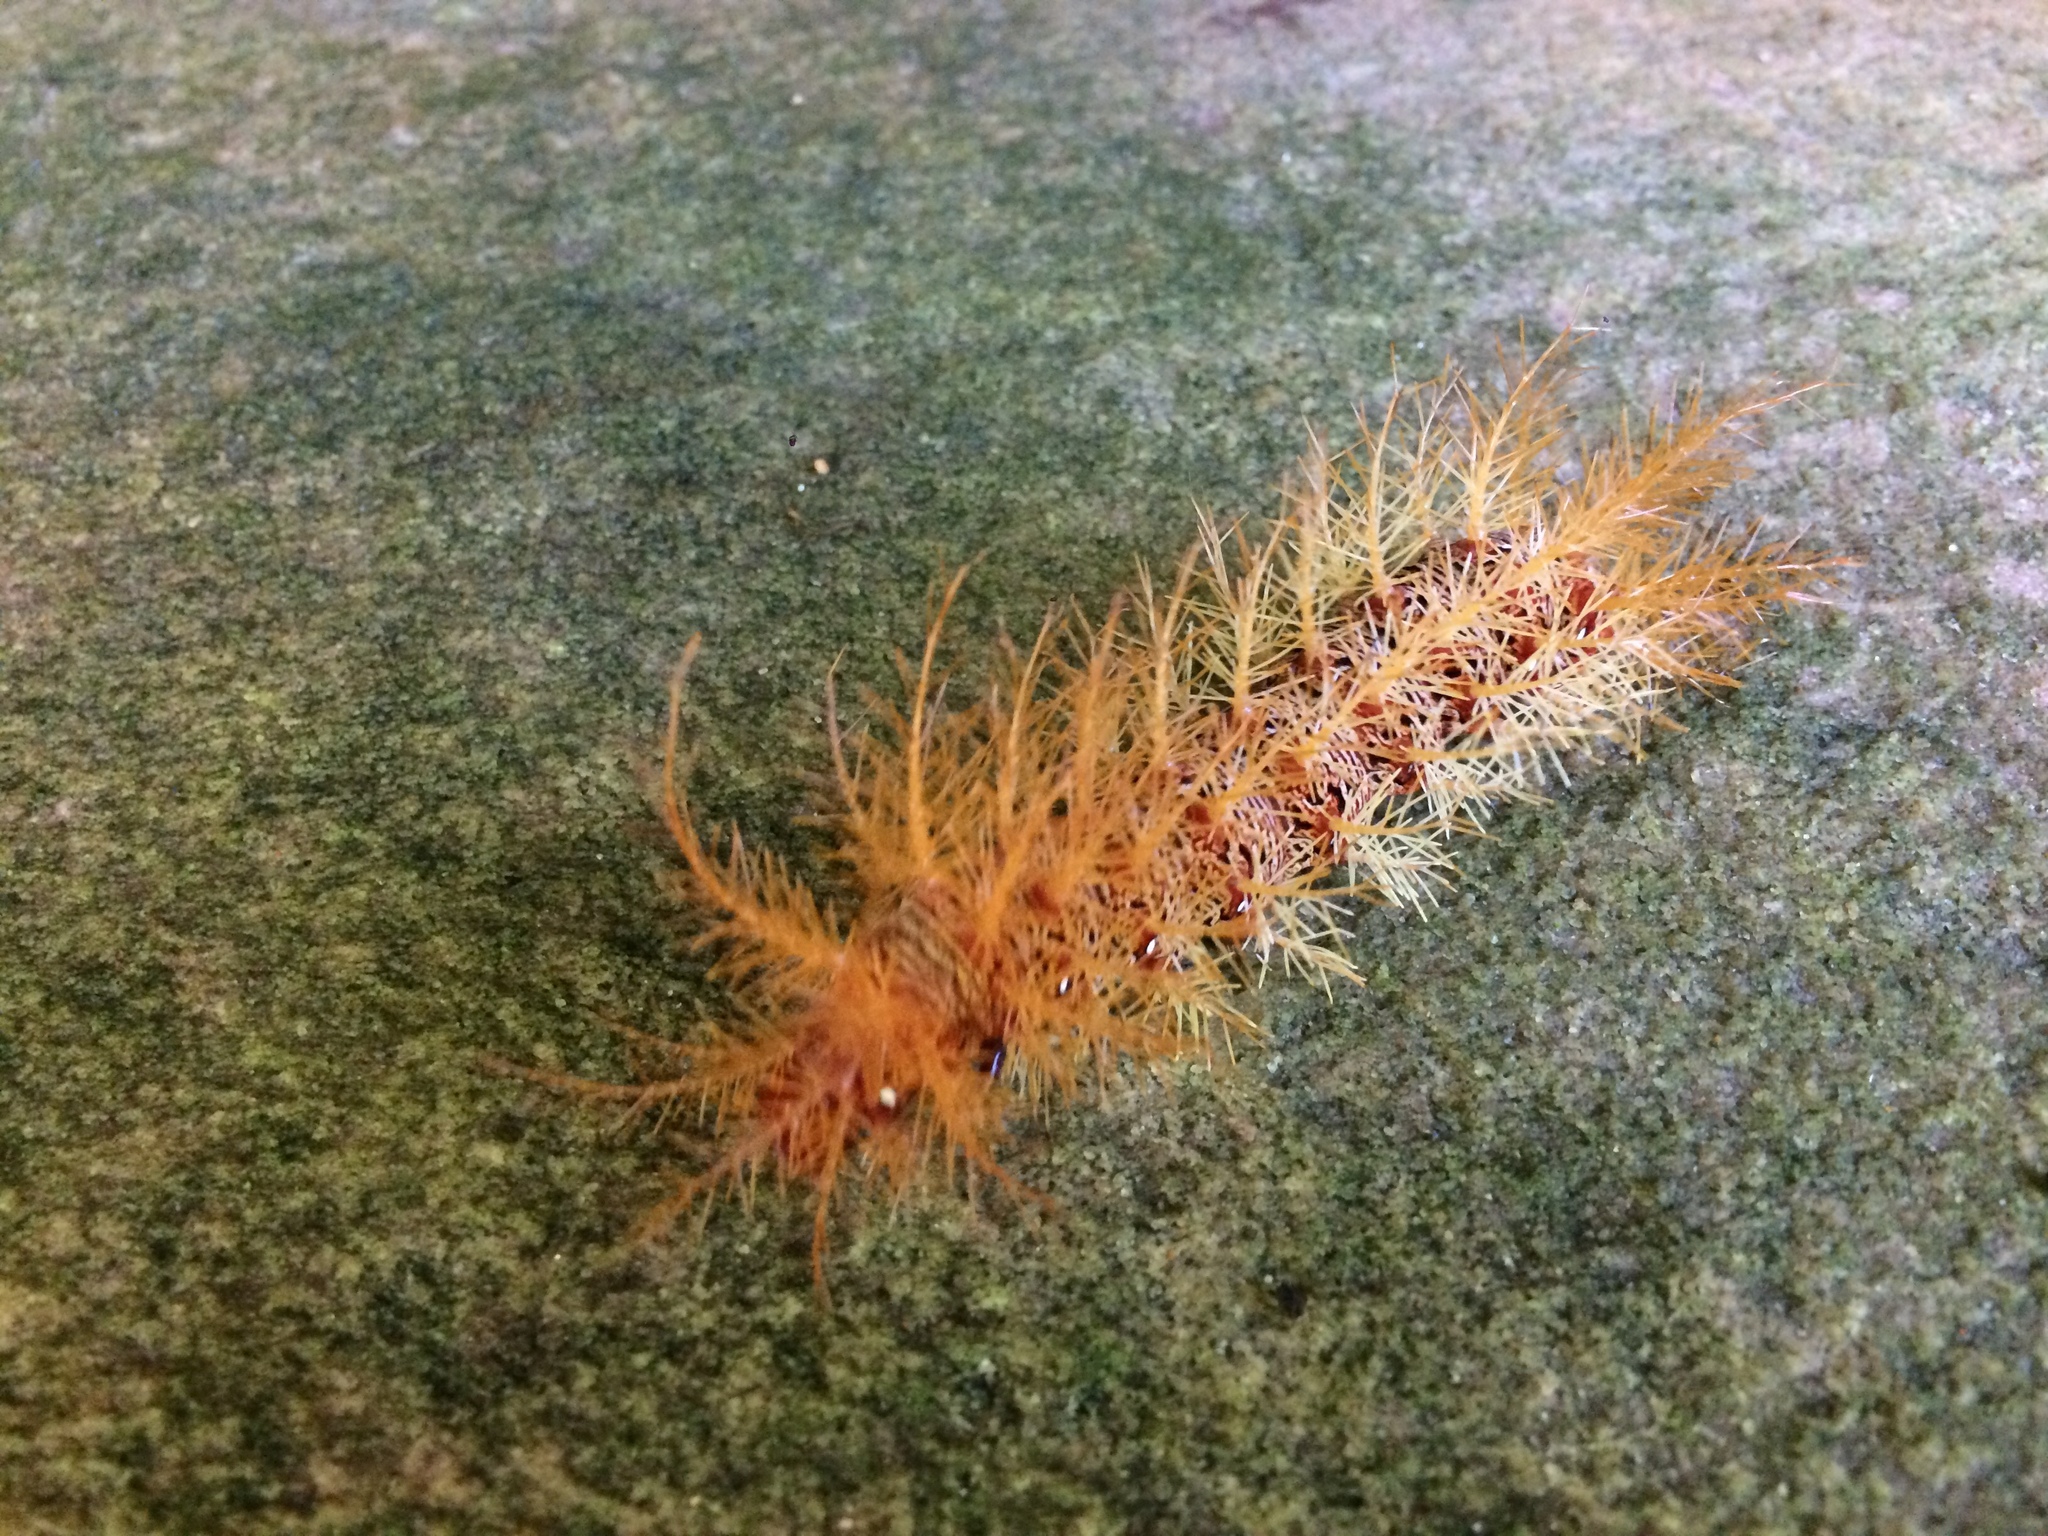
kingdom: Animalia
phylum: Arthropoda
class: Insecta
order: Lepidoptera
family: Saturniidae
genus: Dirphia
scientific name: Dirphia moderata
